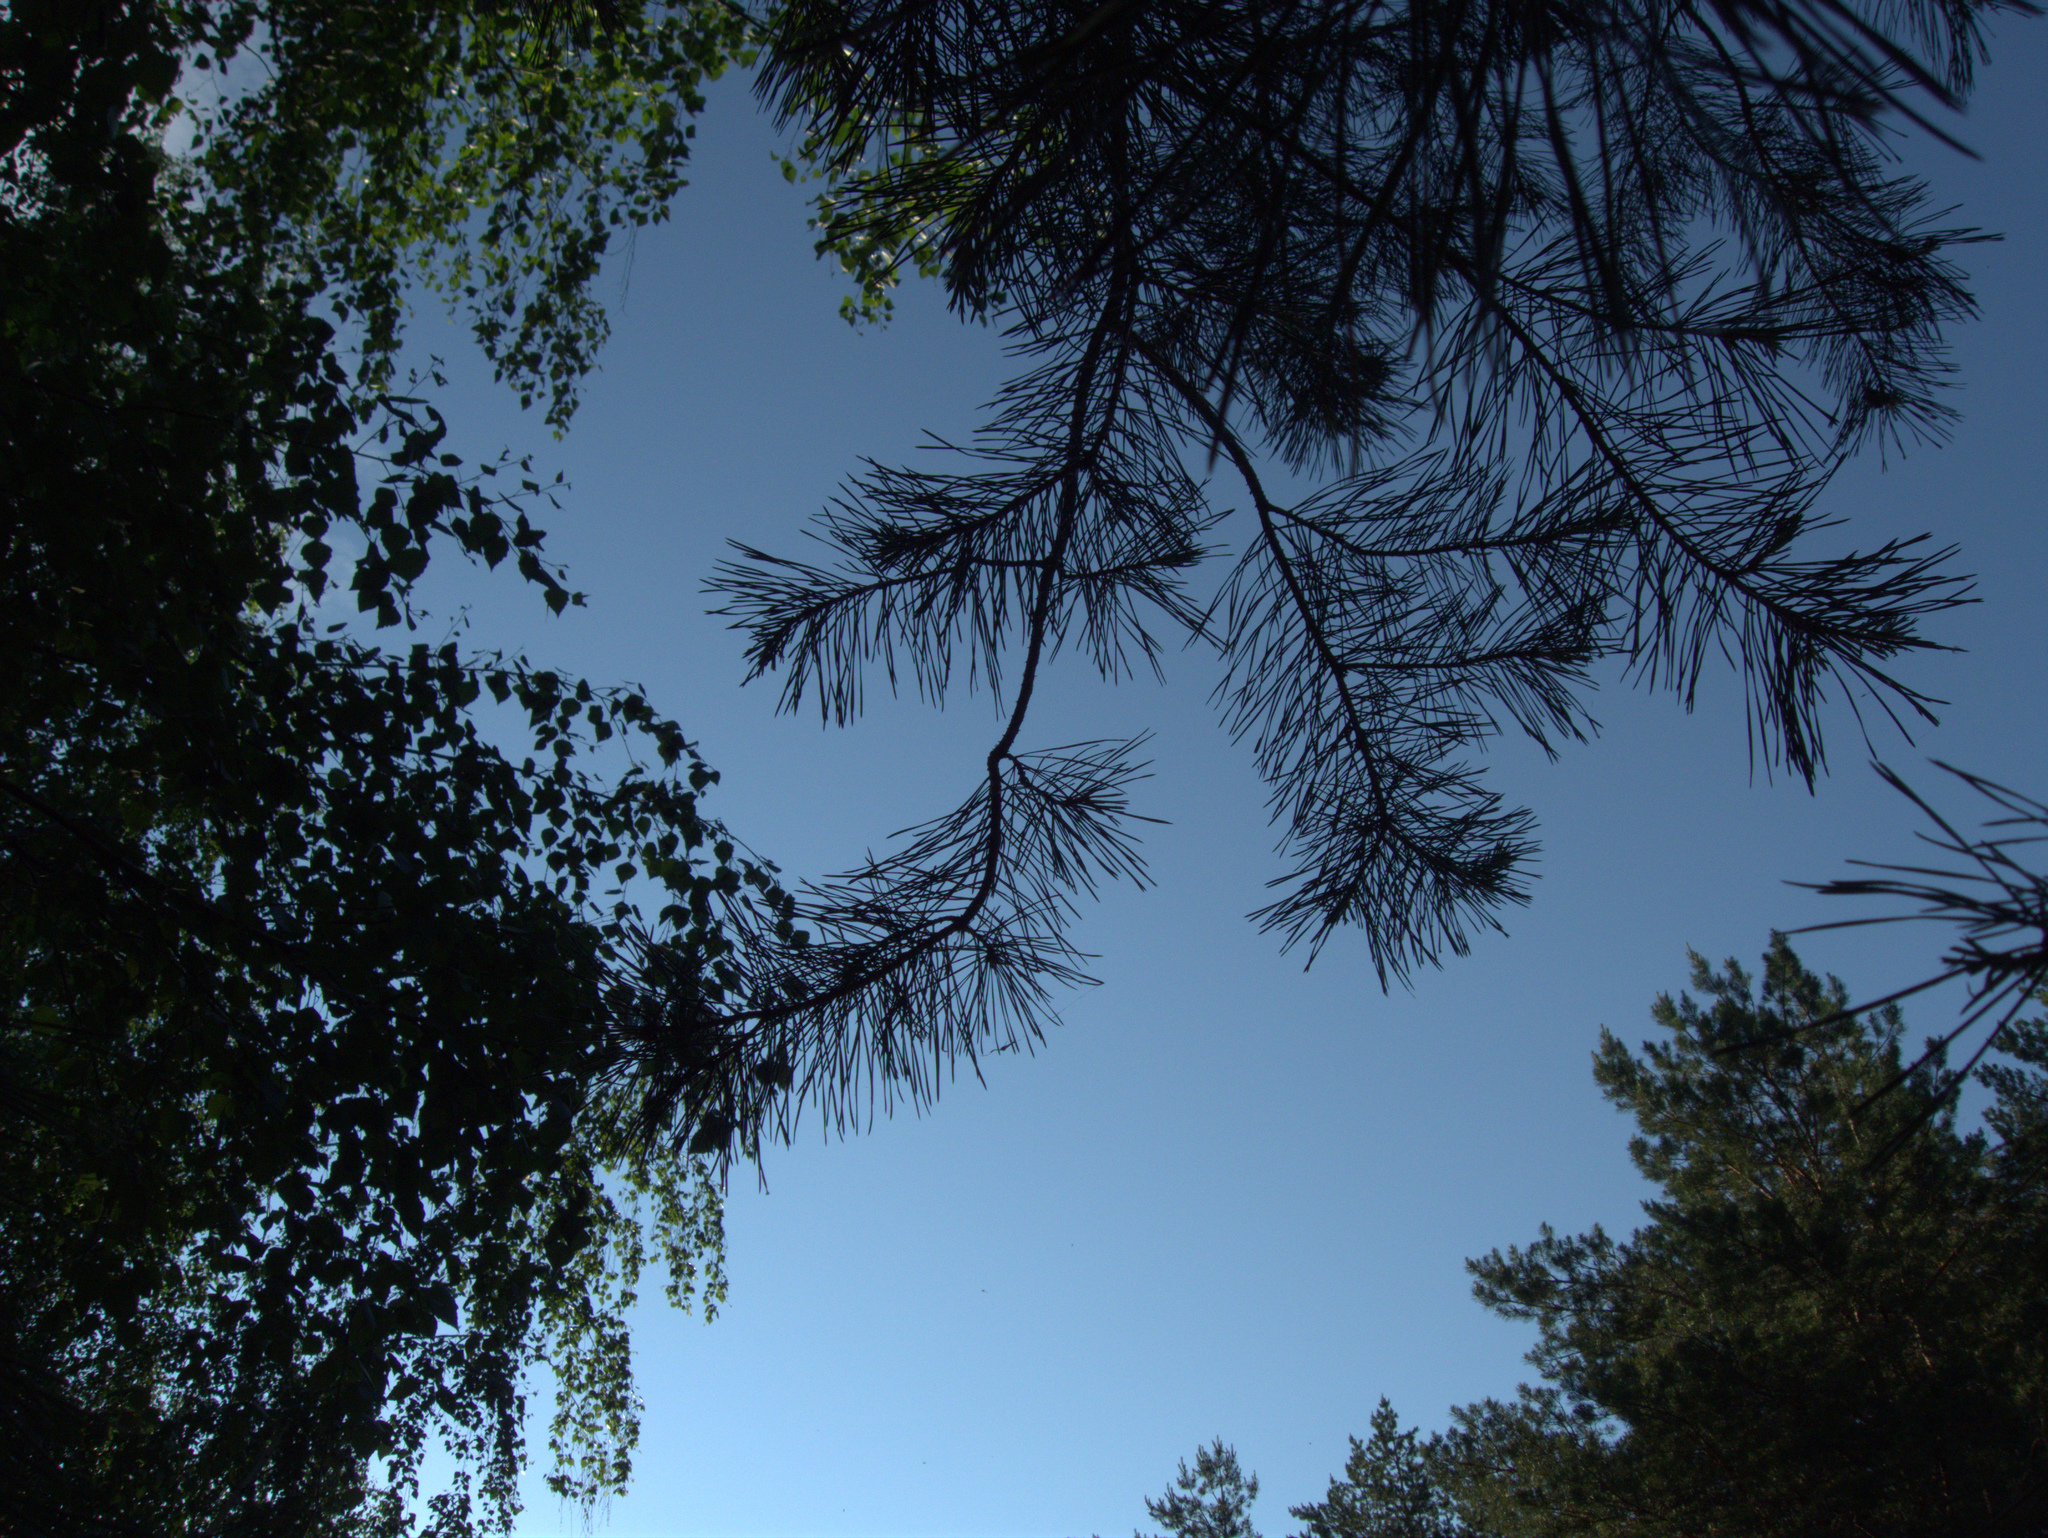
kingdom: Plantae
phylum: Tracheophyta
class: Pinopsida
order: Pinales
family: Pinaceae
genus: Pinus
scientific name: Pinus sylvestris
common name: Scots pine
